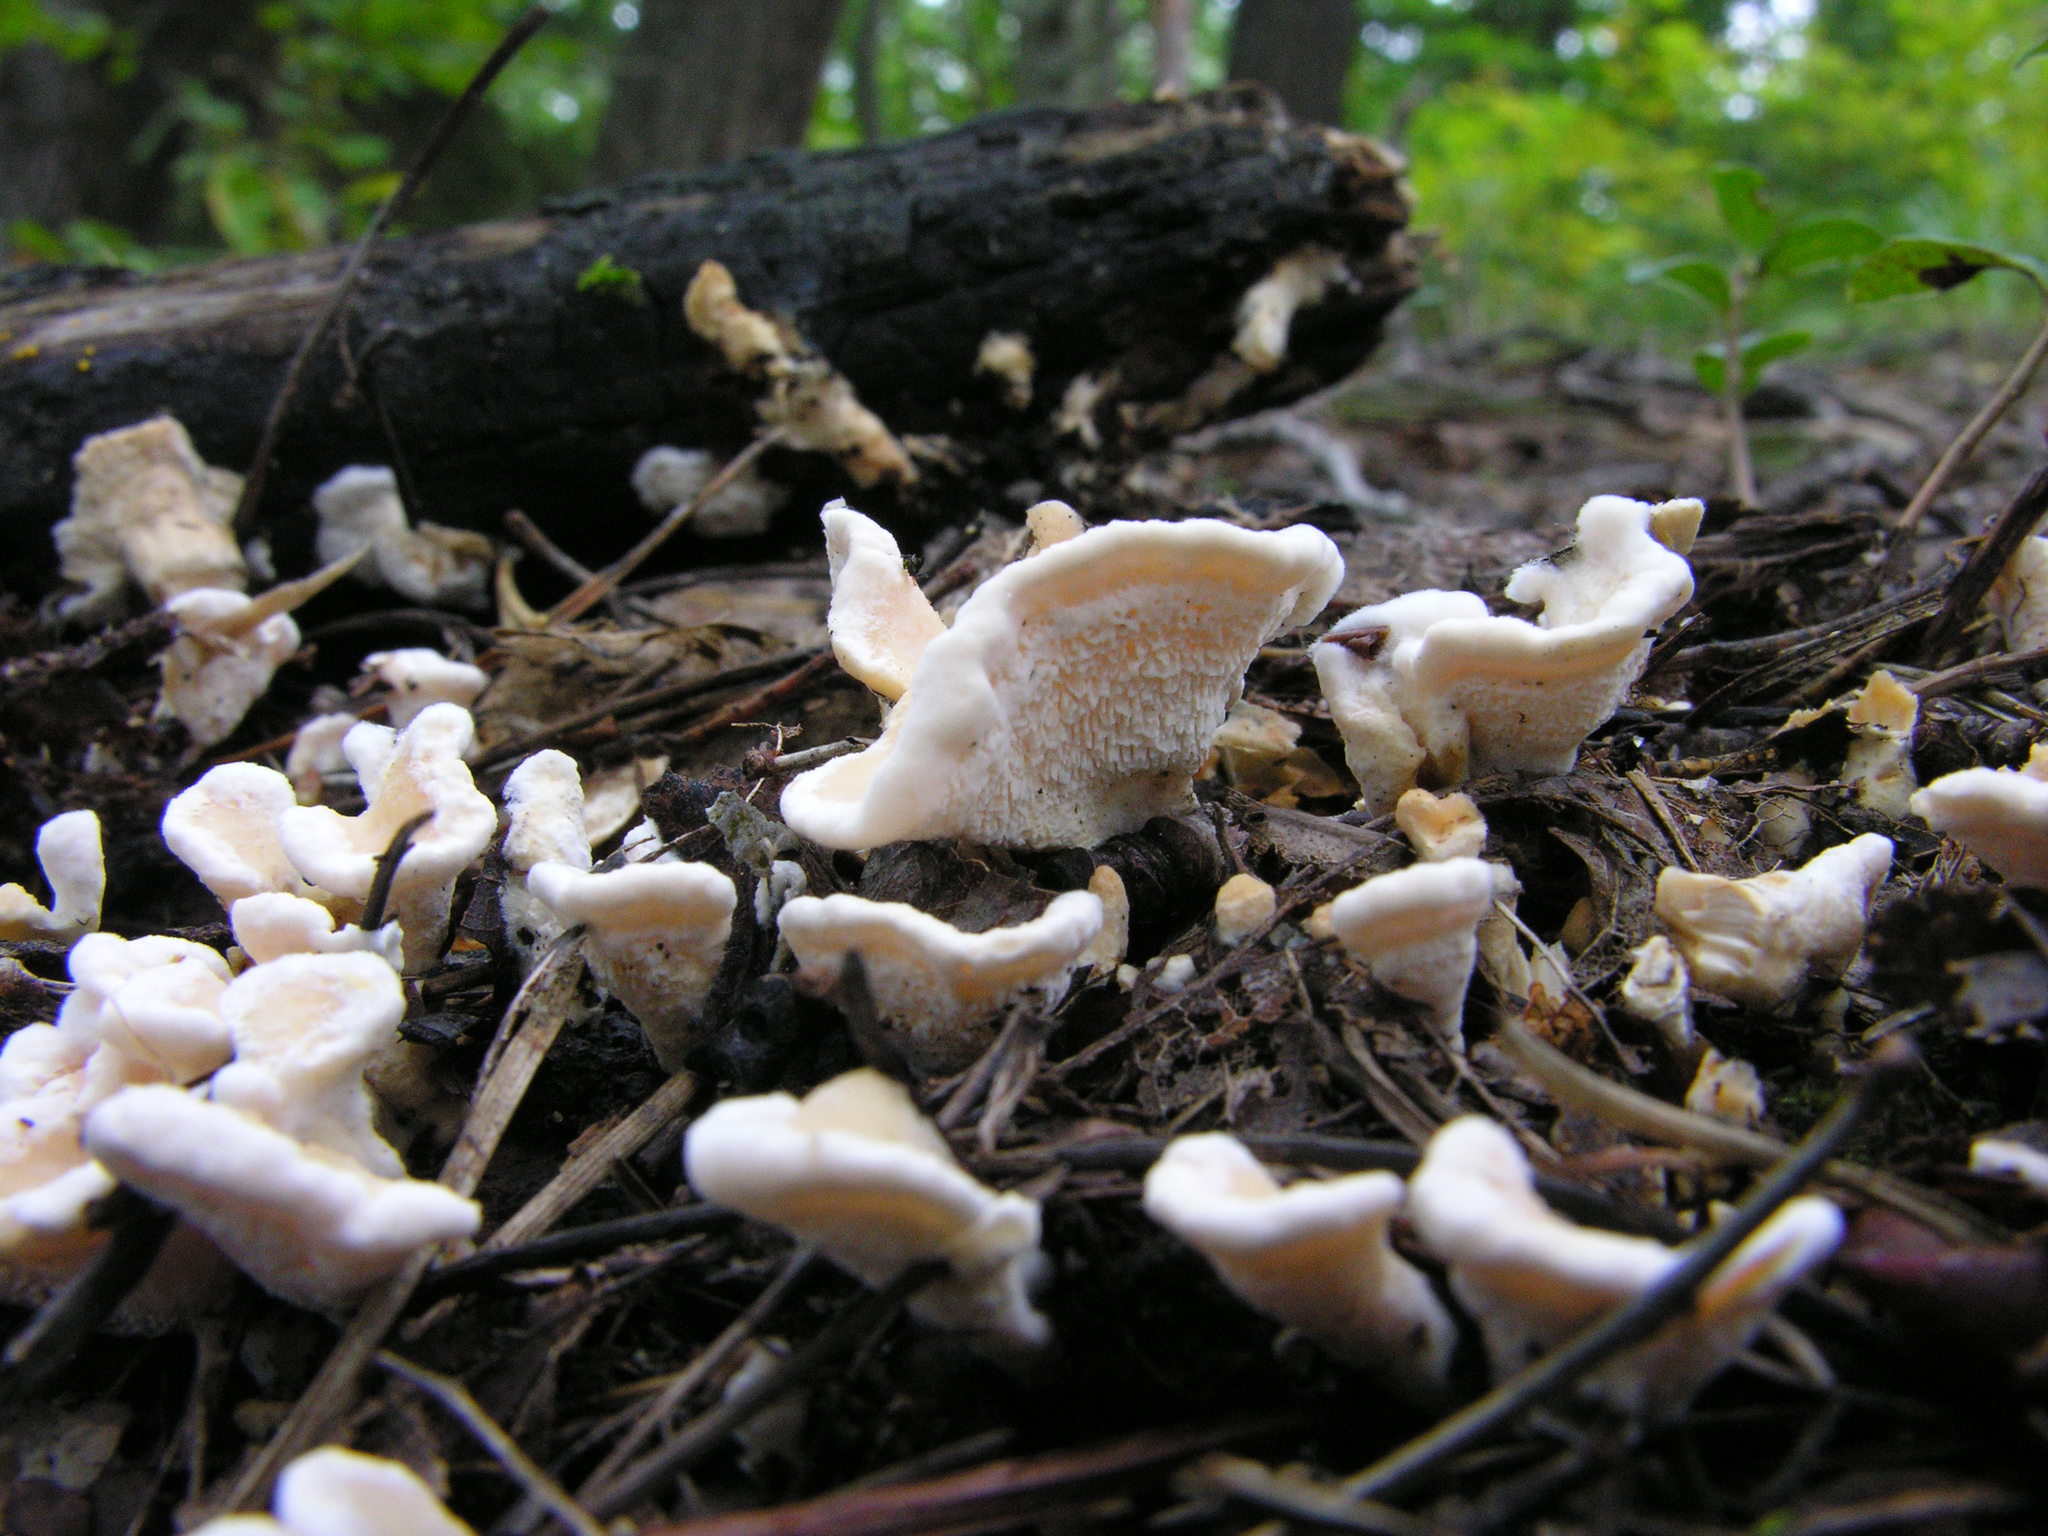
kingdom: Fungi
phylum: Basidiomycota
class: Agaricomycetes
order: Cantharellales
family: Hydnaceae
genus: Sistotrema
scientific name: Sistotrema confluens
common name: Aromatic earthfan
